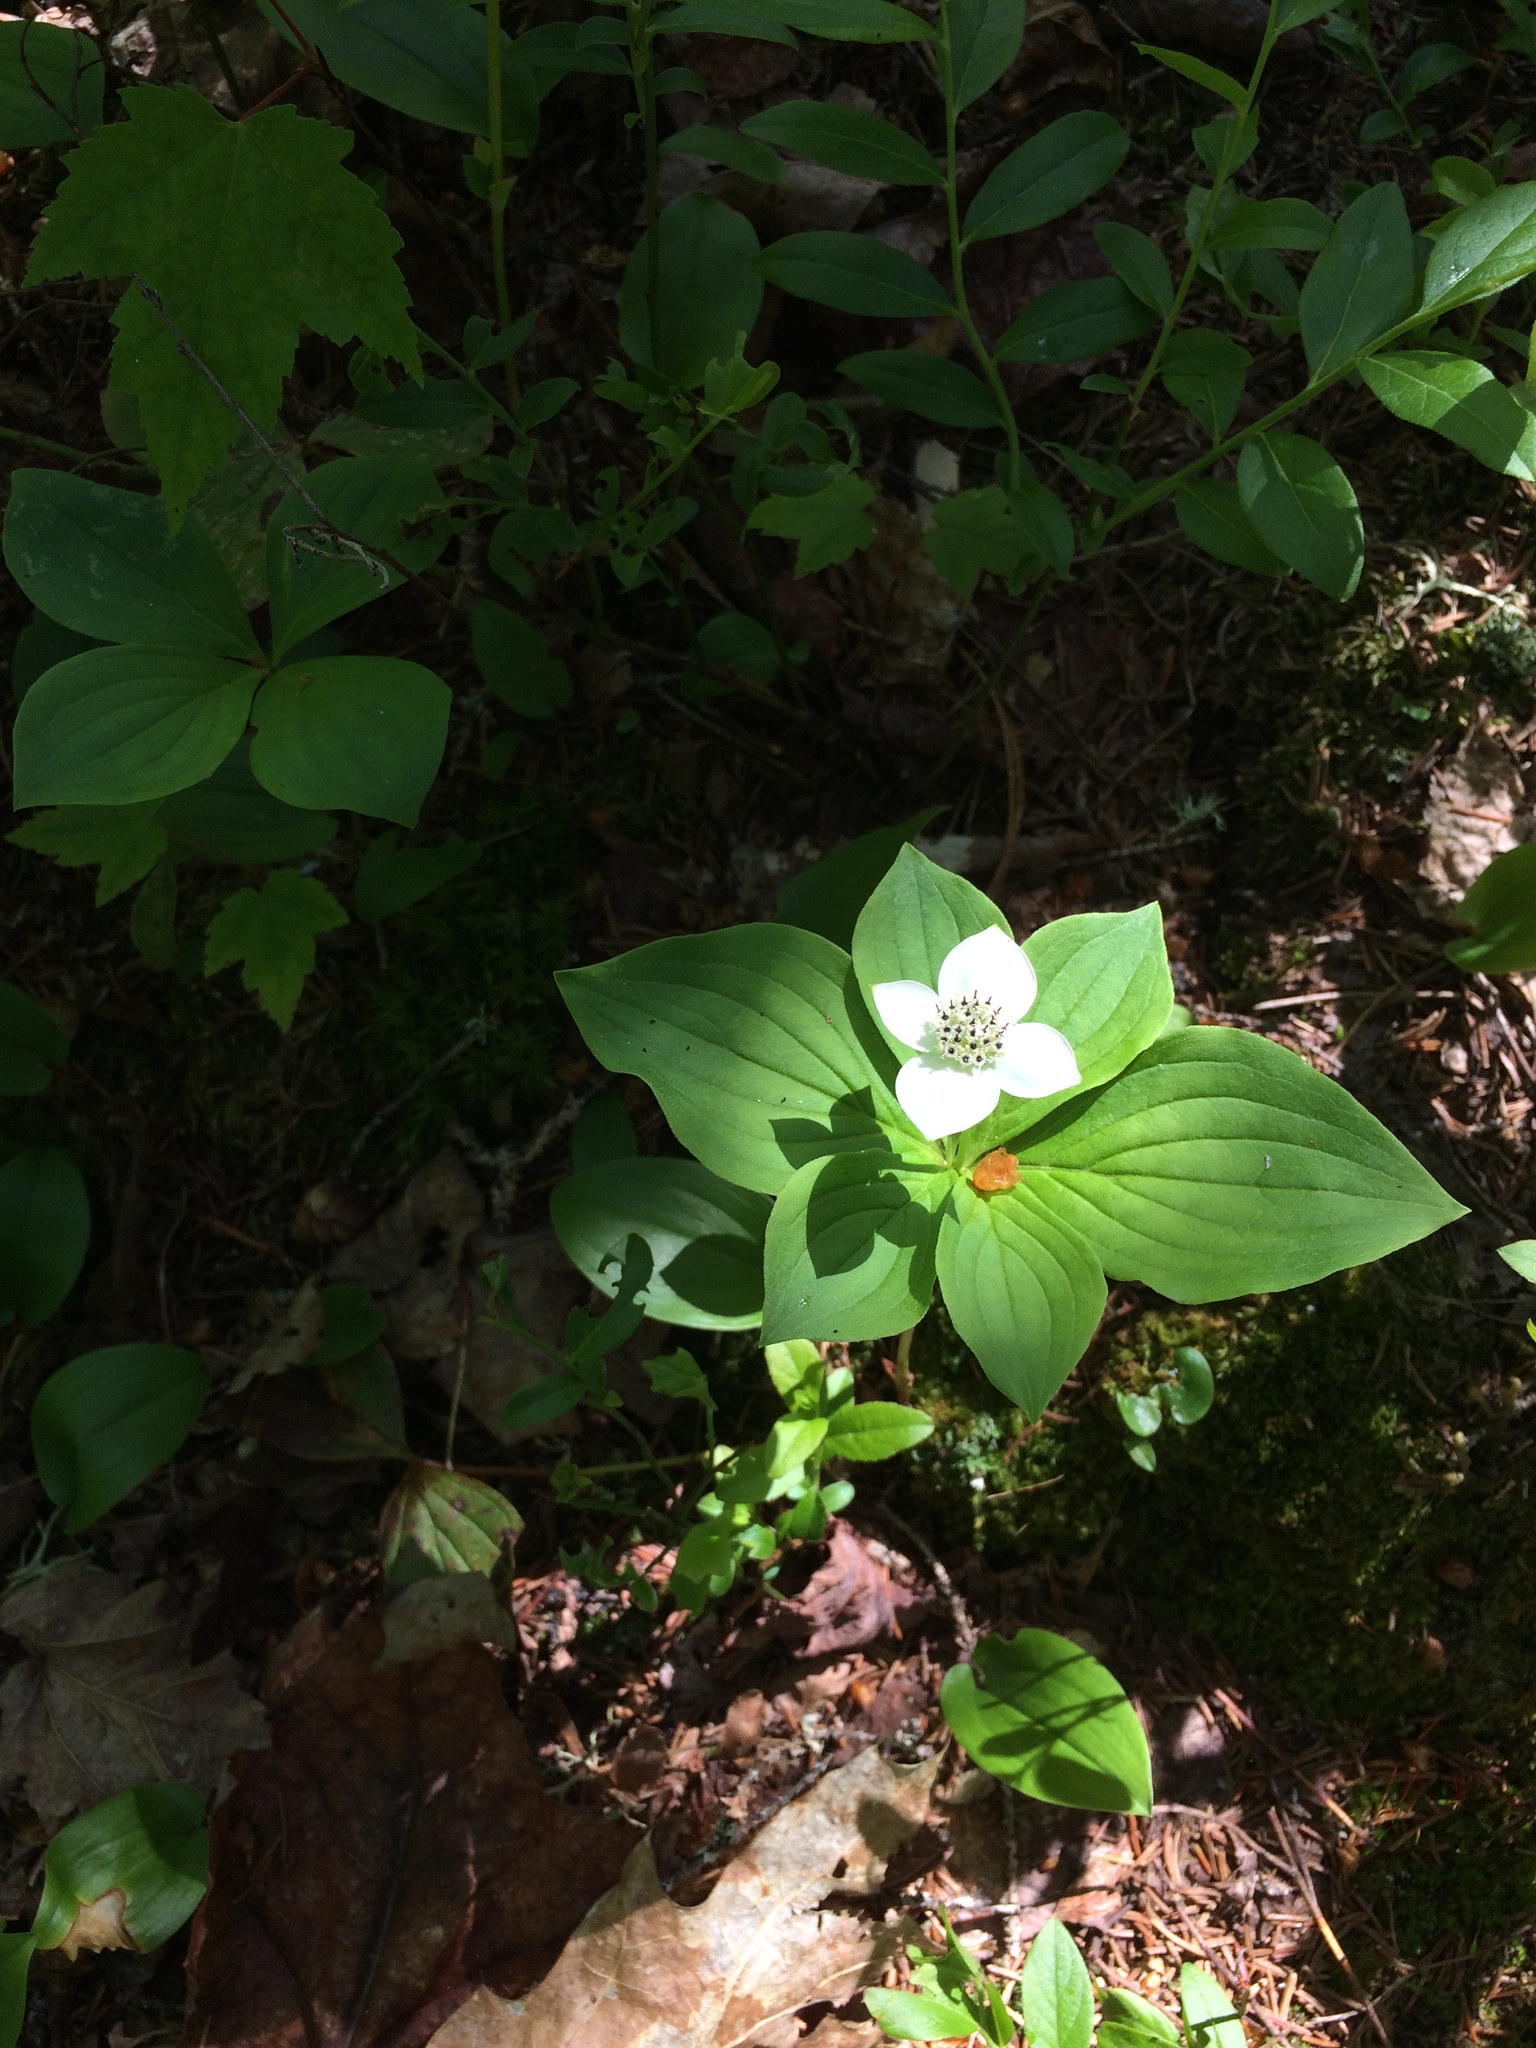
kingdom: Plantae
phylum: Tracheophyta
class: Magnoliopsida
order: Cornales
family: Cornaceae
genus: Cornus
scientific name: Cornus canadensis
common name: Creeping dogwood
